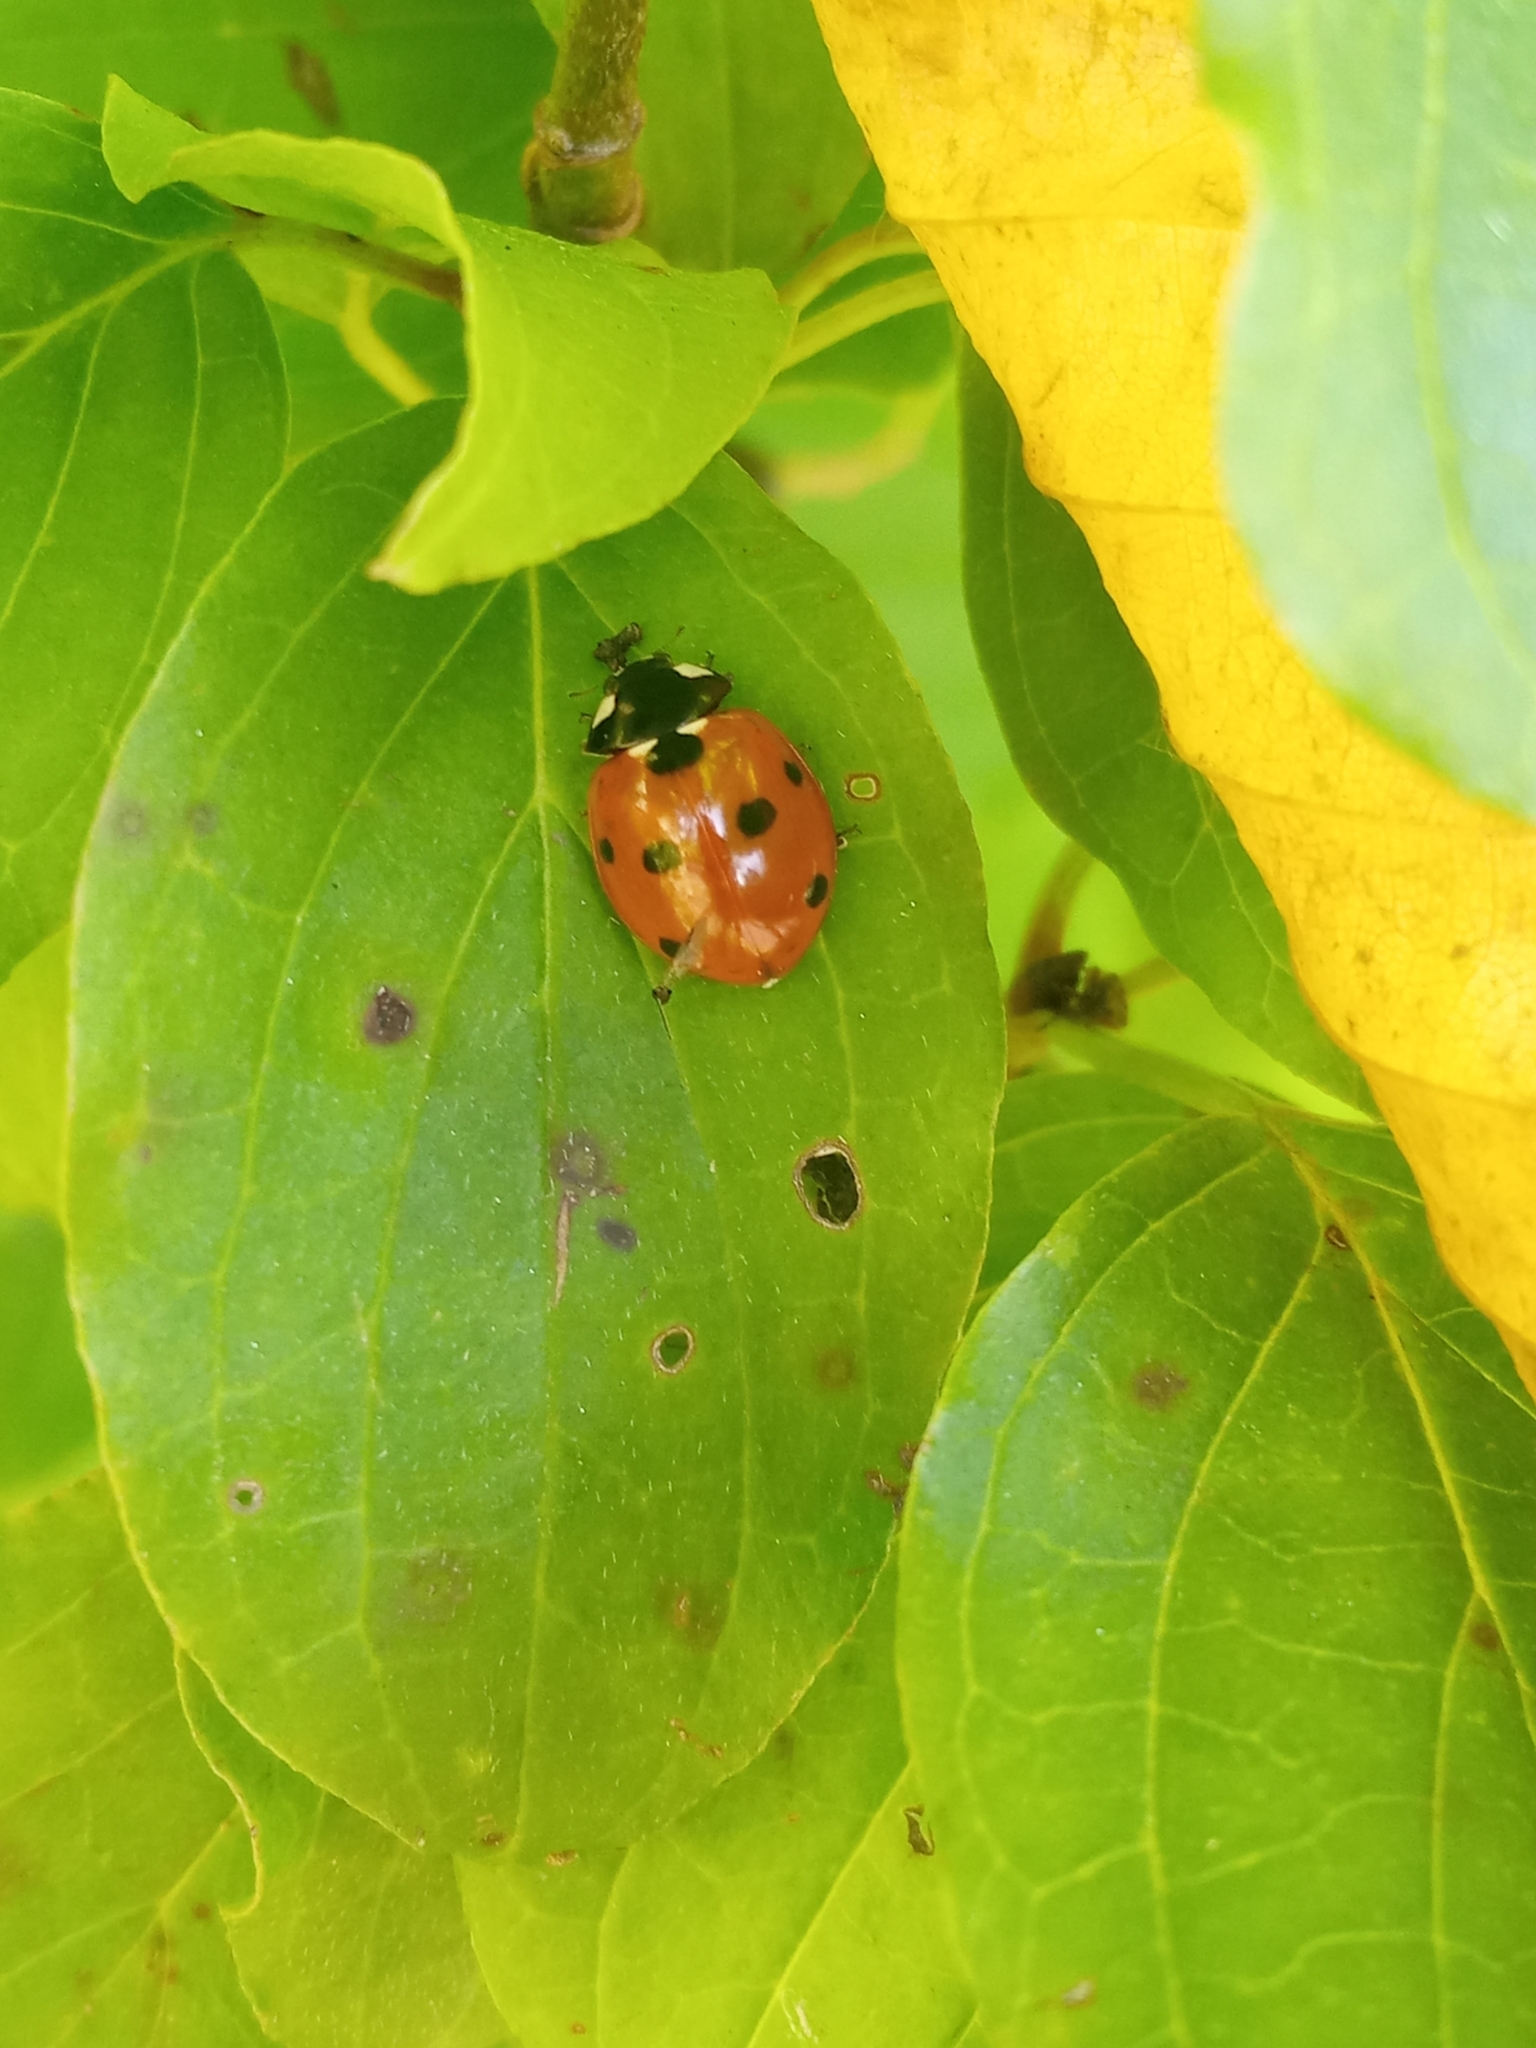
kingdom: Animalia
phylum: Arthropoda
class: Insecta
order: Coleoptera
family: Coccinellidae
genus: Coccinella
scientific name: Coccinella septempunctata
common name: Sevenspotted lady beetle
